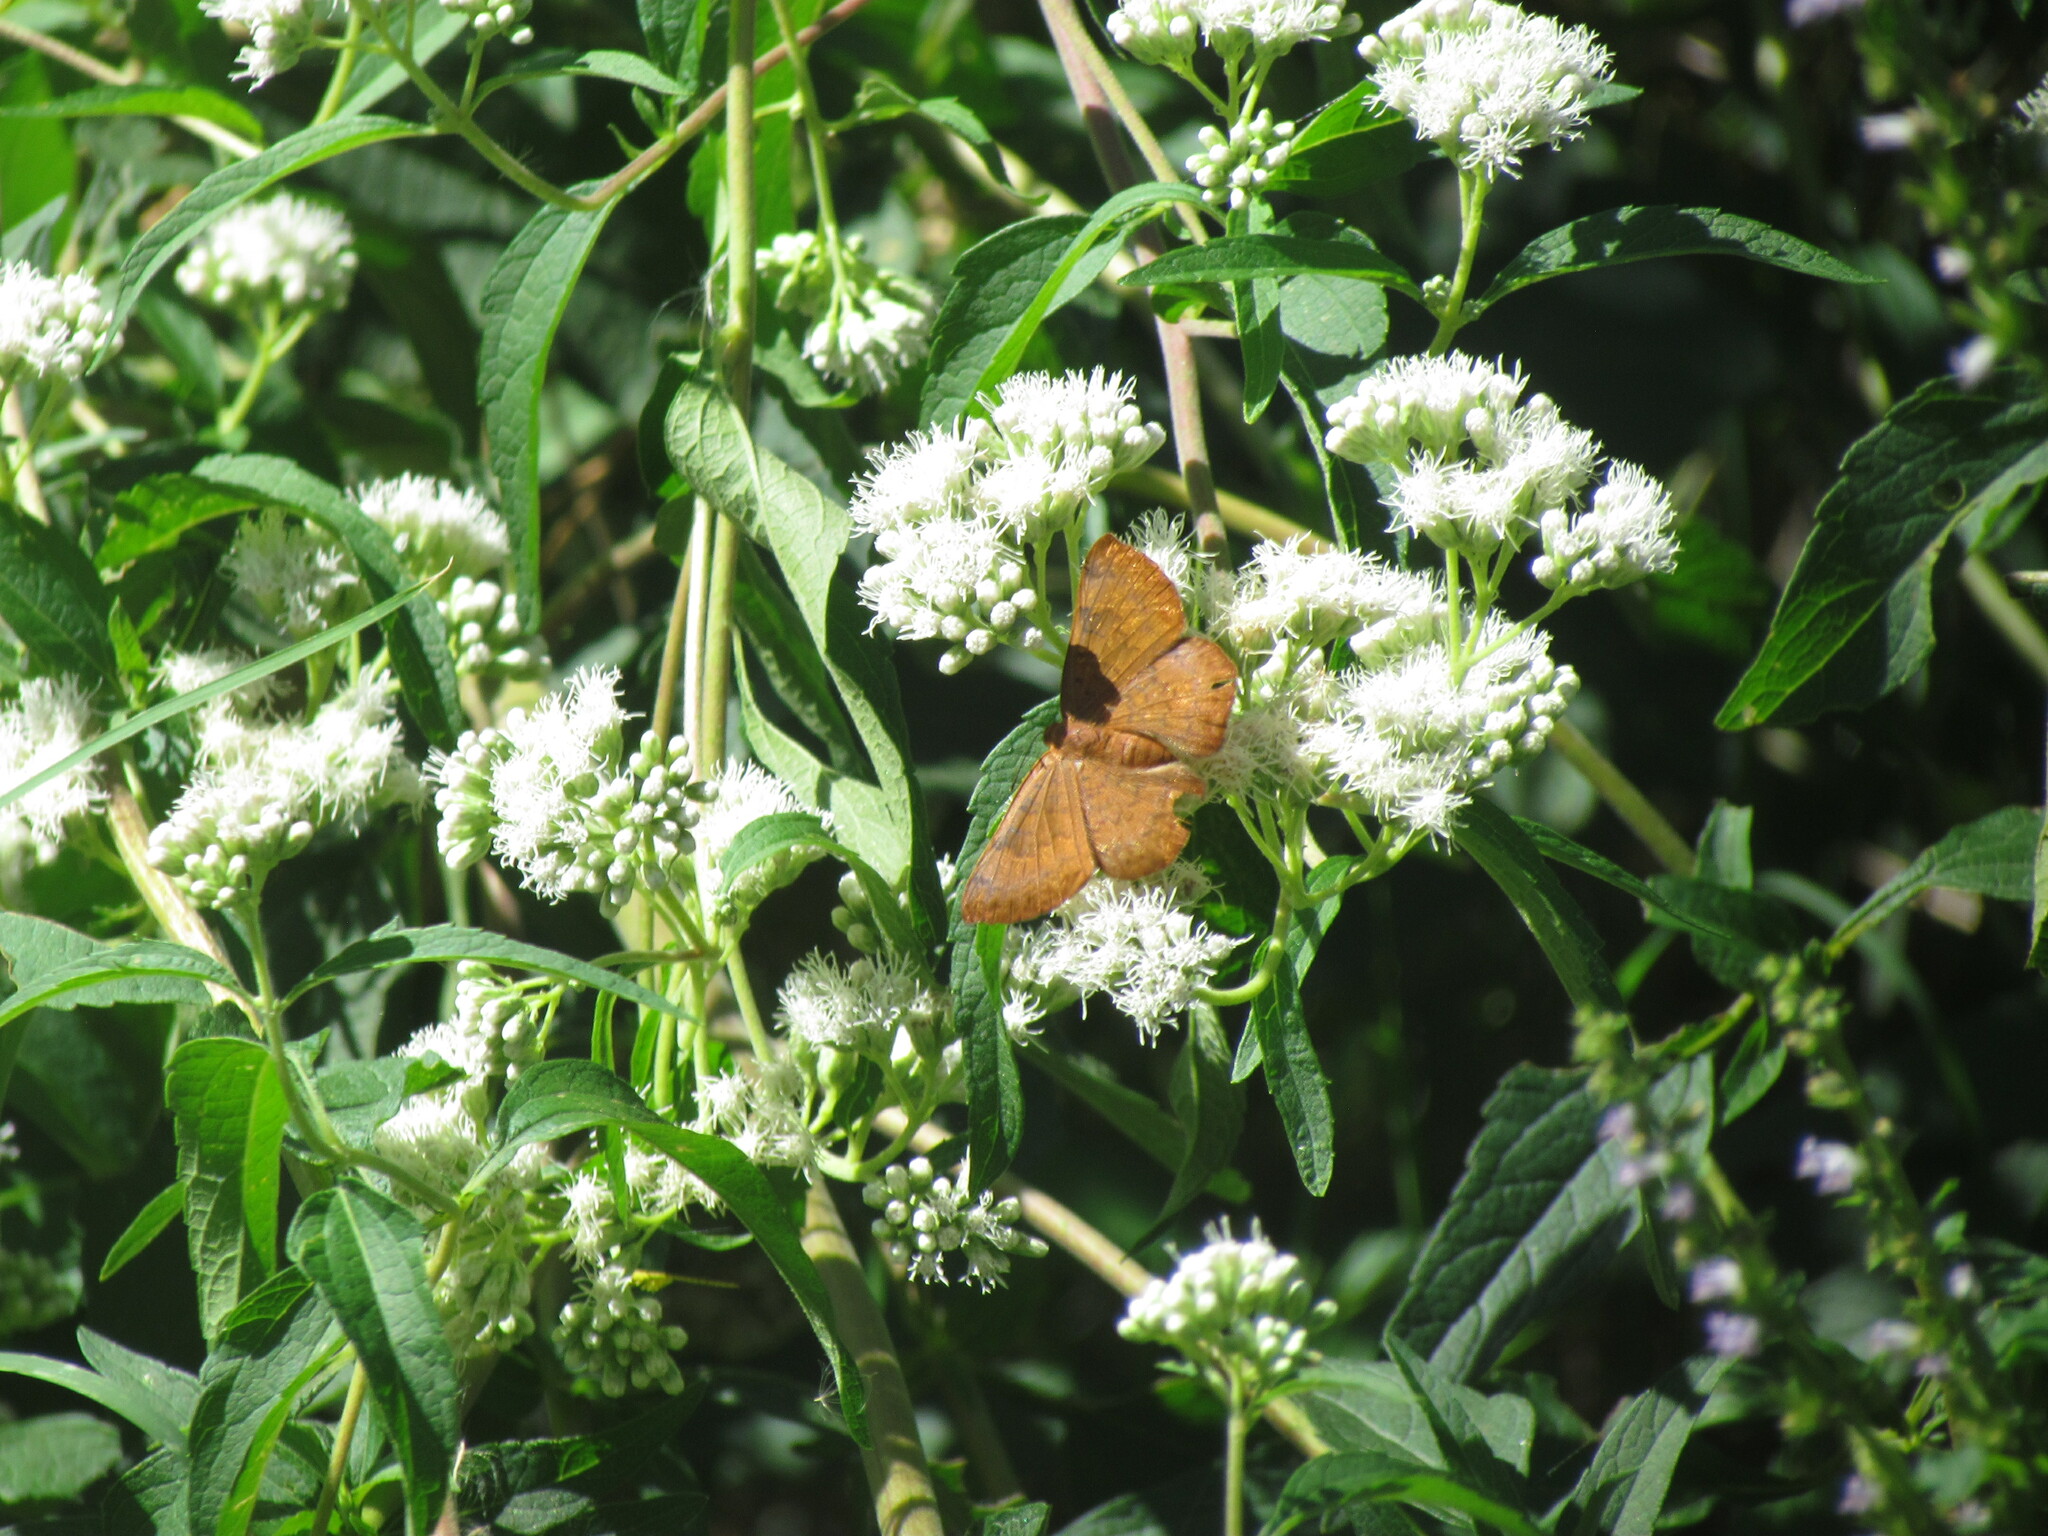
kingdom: Animalia
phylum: Arthropoda
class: Insecta
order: Lepidoptera
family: Lycaenidae
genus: Emesis
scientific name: Emesis russula
